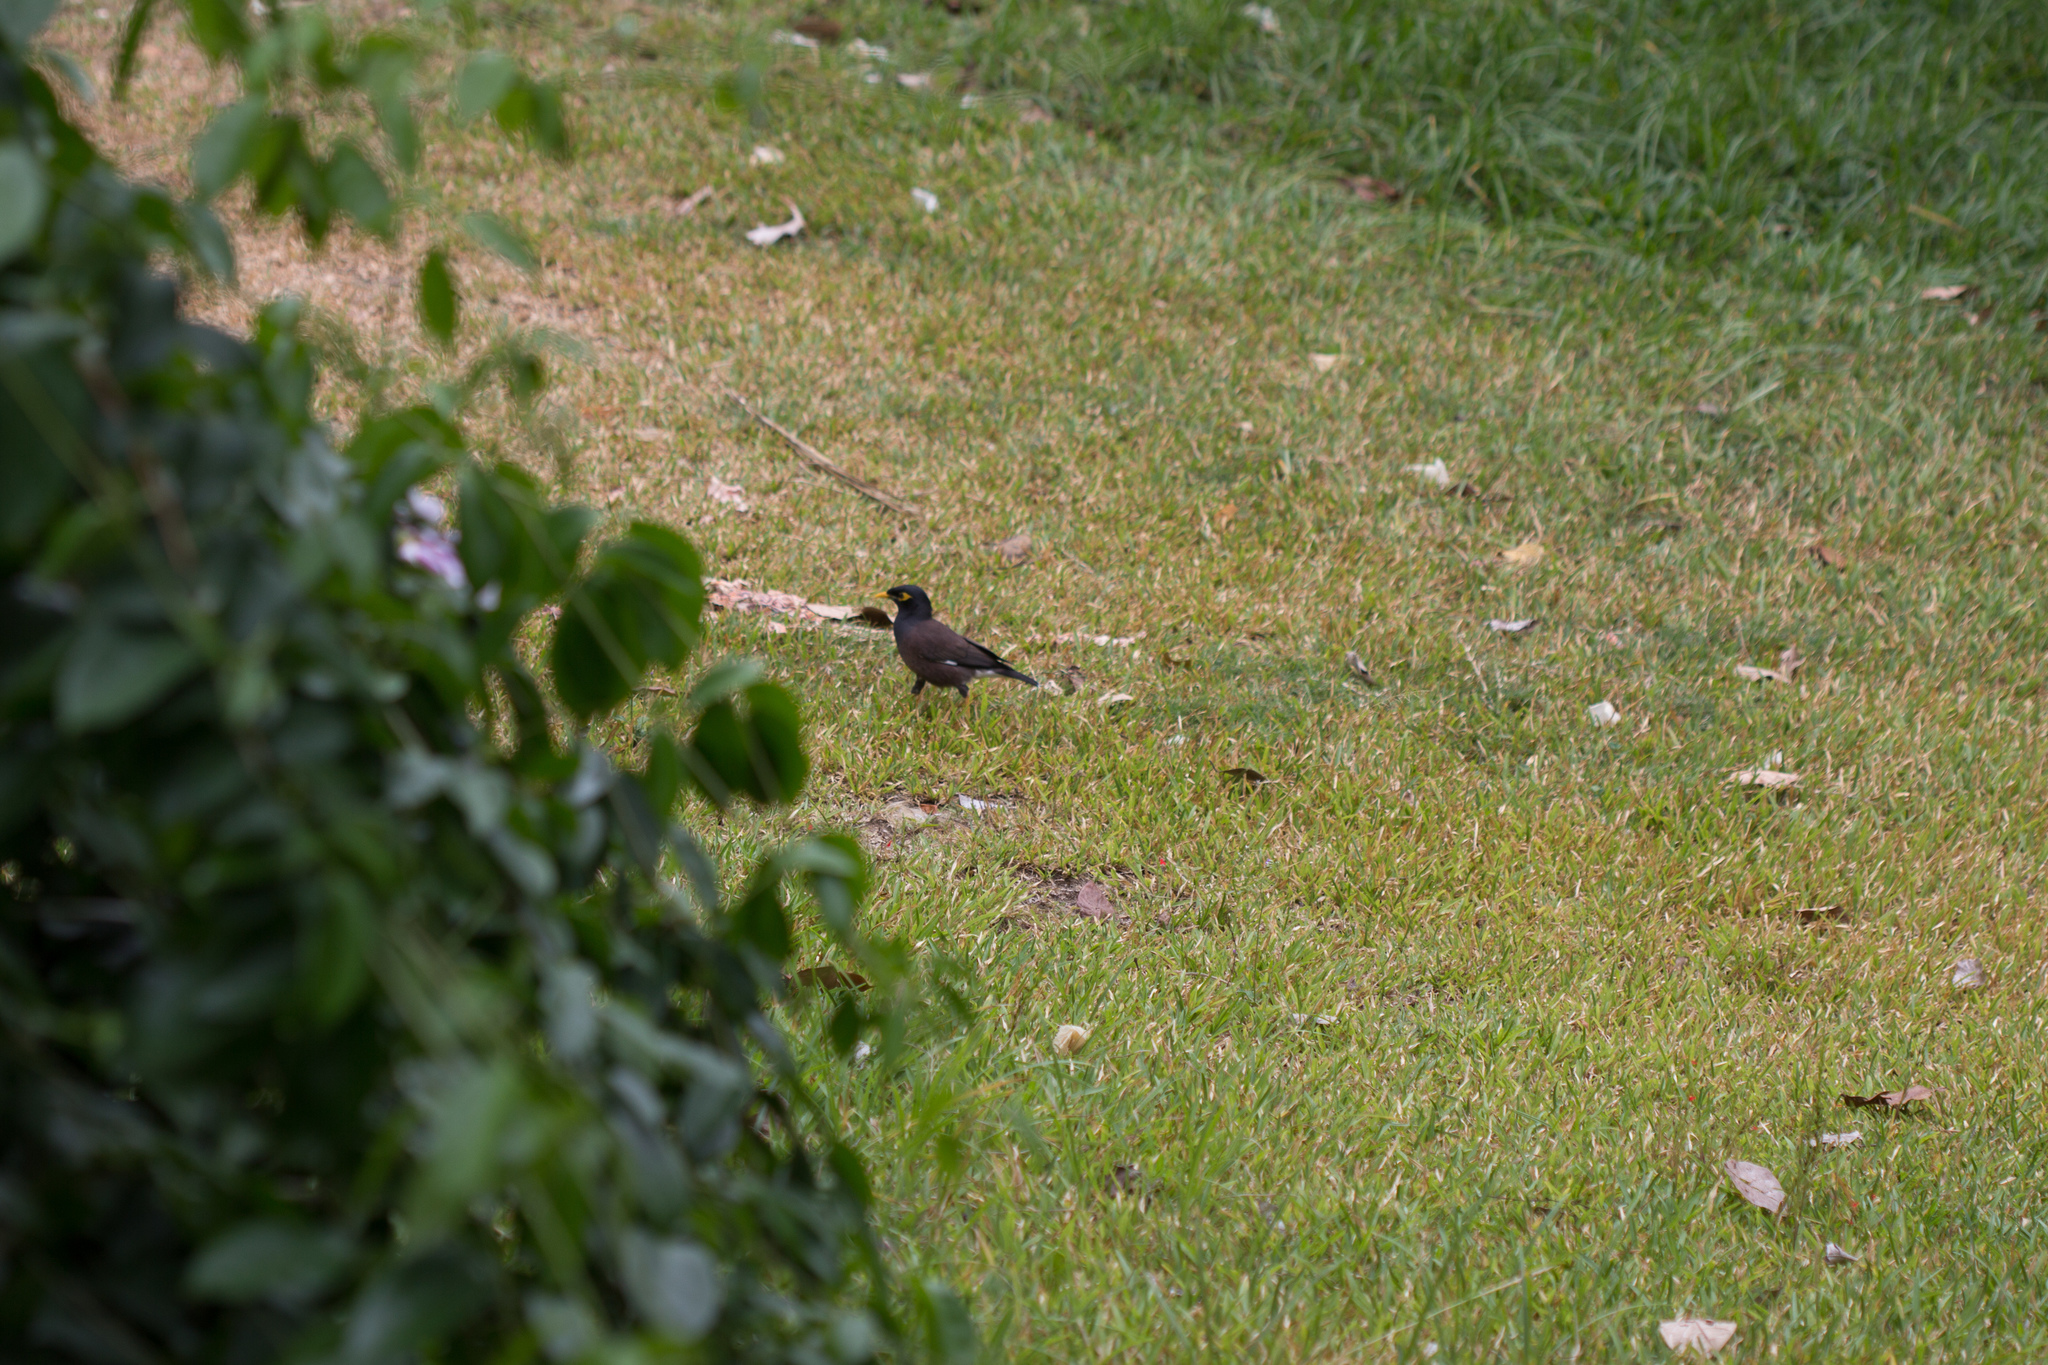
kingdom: Animalia
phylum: Chordata
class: Aves
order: Passeriformes
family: Sturnidae
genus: Acridotheres
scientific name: Acridotheres tristis
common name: Common myna
